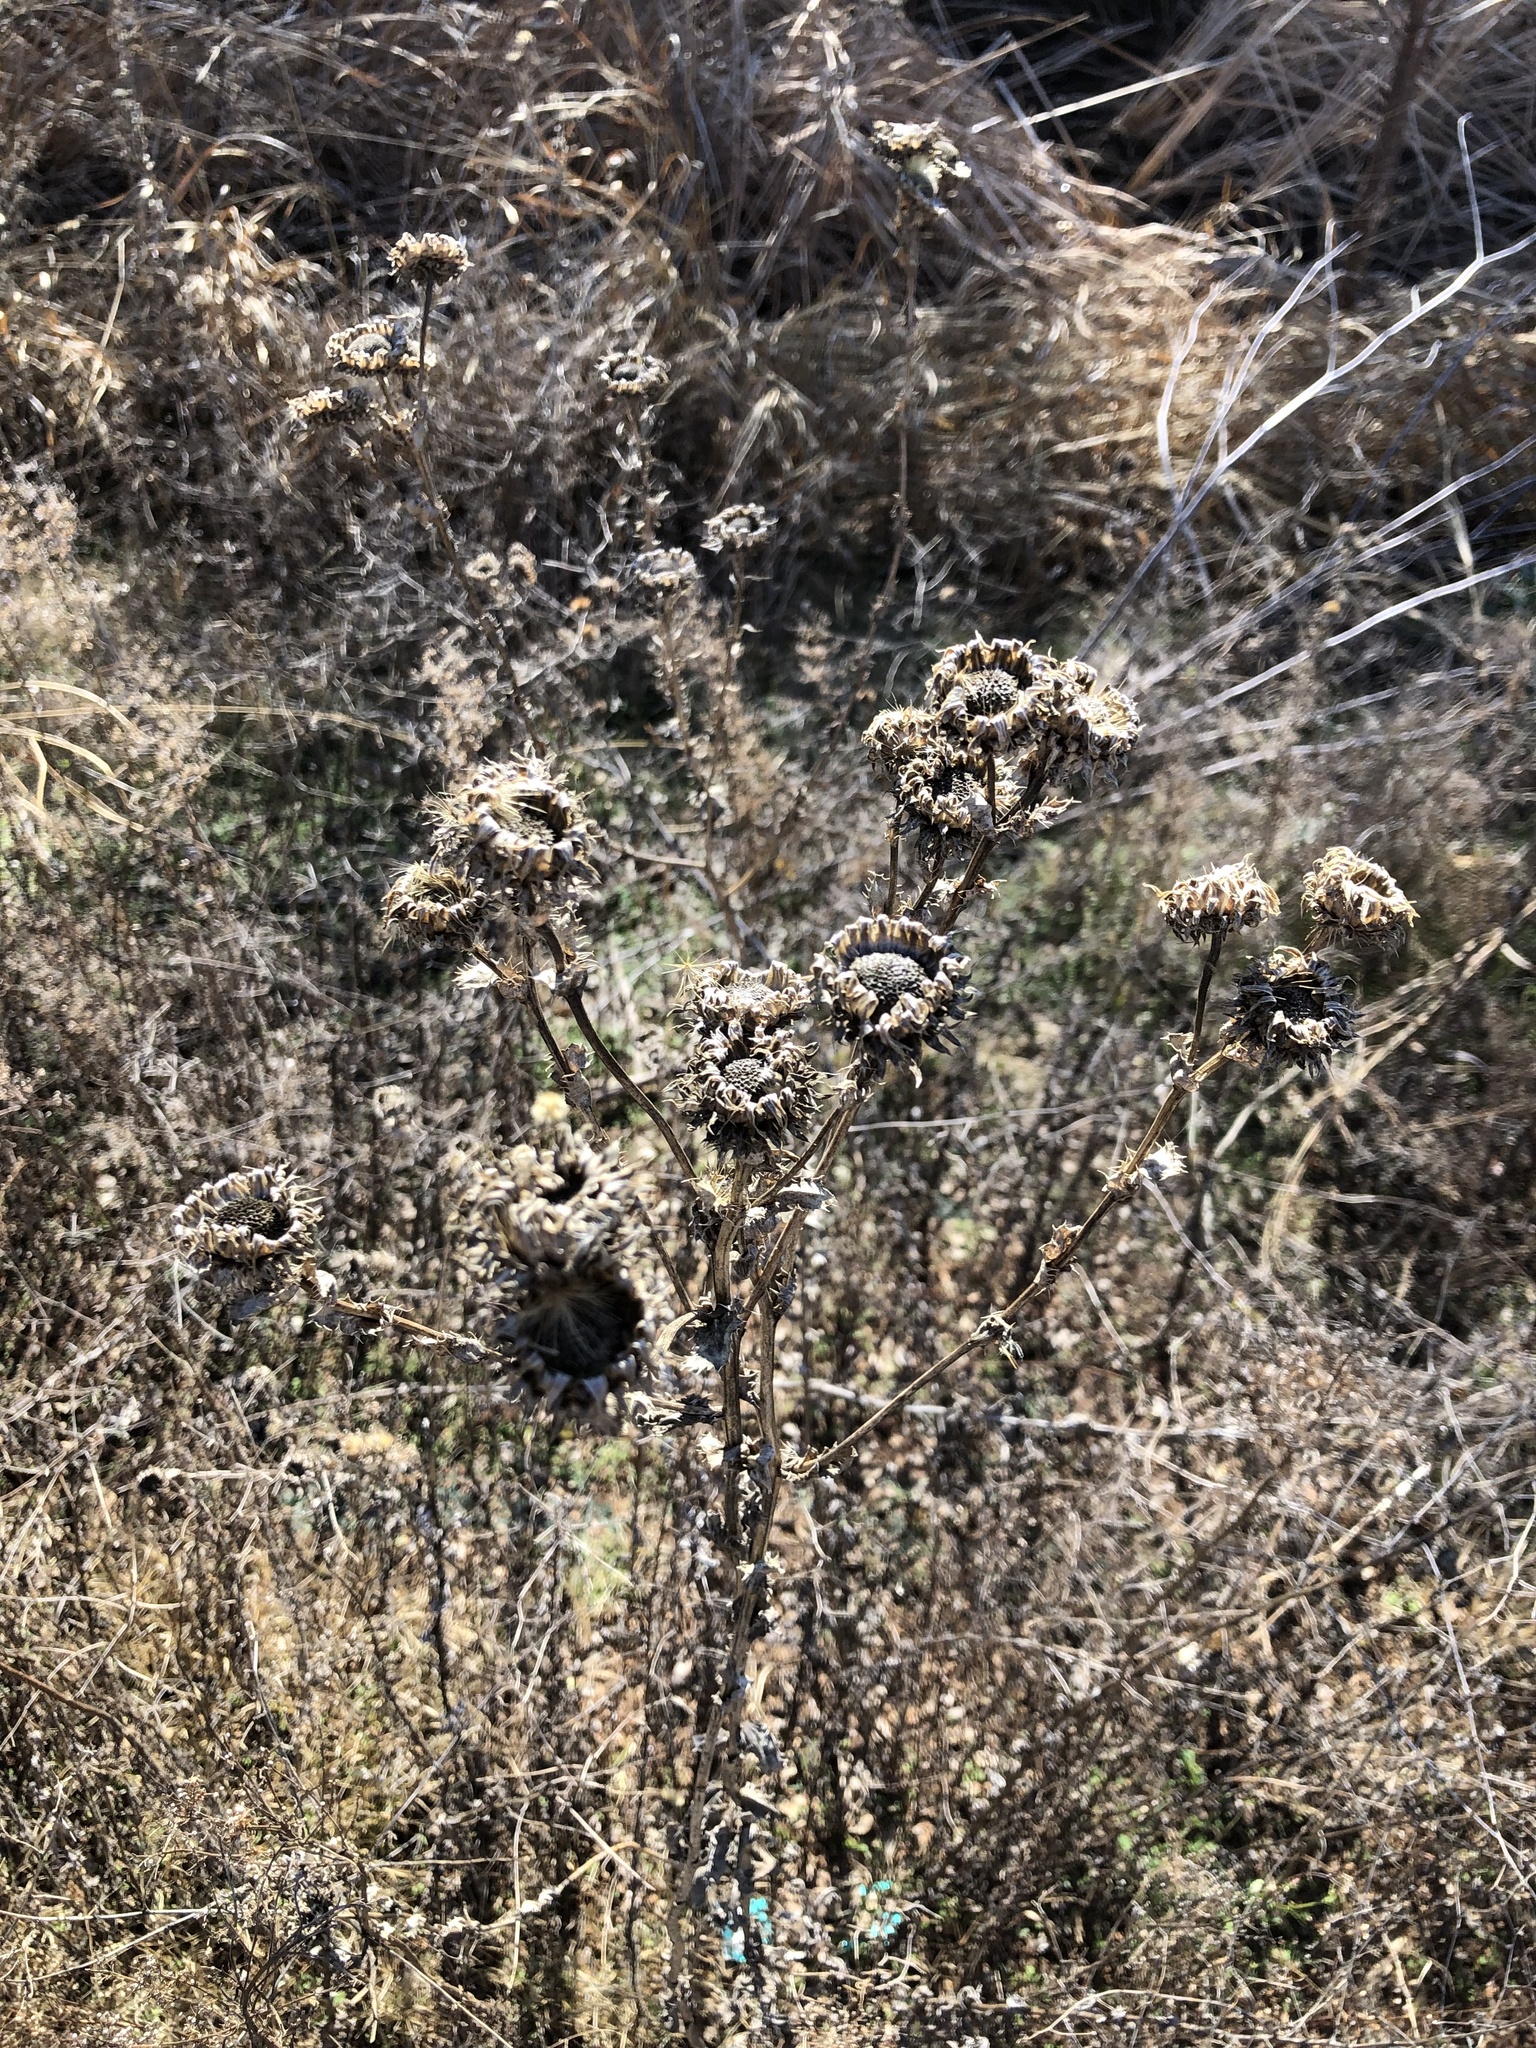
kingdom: Plantae
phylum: Tracheophyta
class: Magnoliopsida
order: Asterales
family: Asteraceae
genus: Grindelia
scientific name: Grindelia ciliata
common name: Goldenweed
